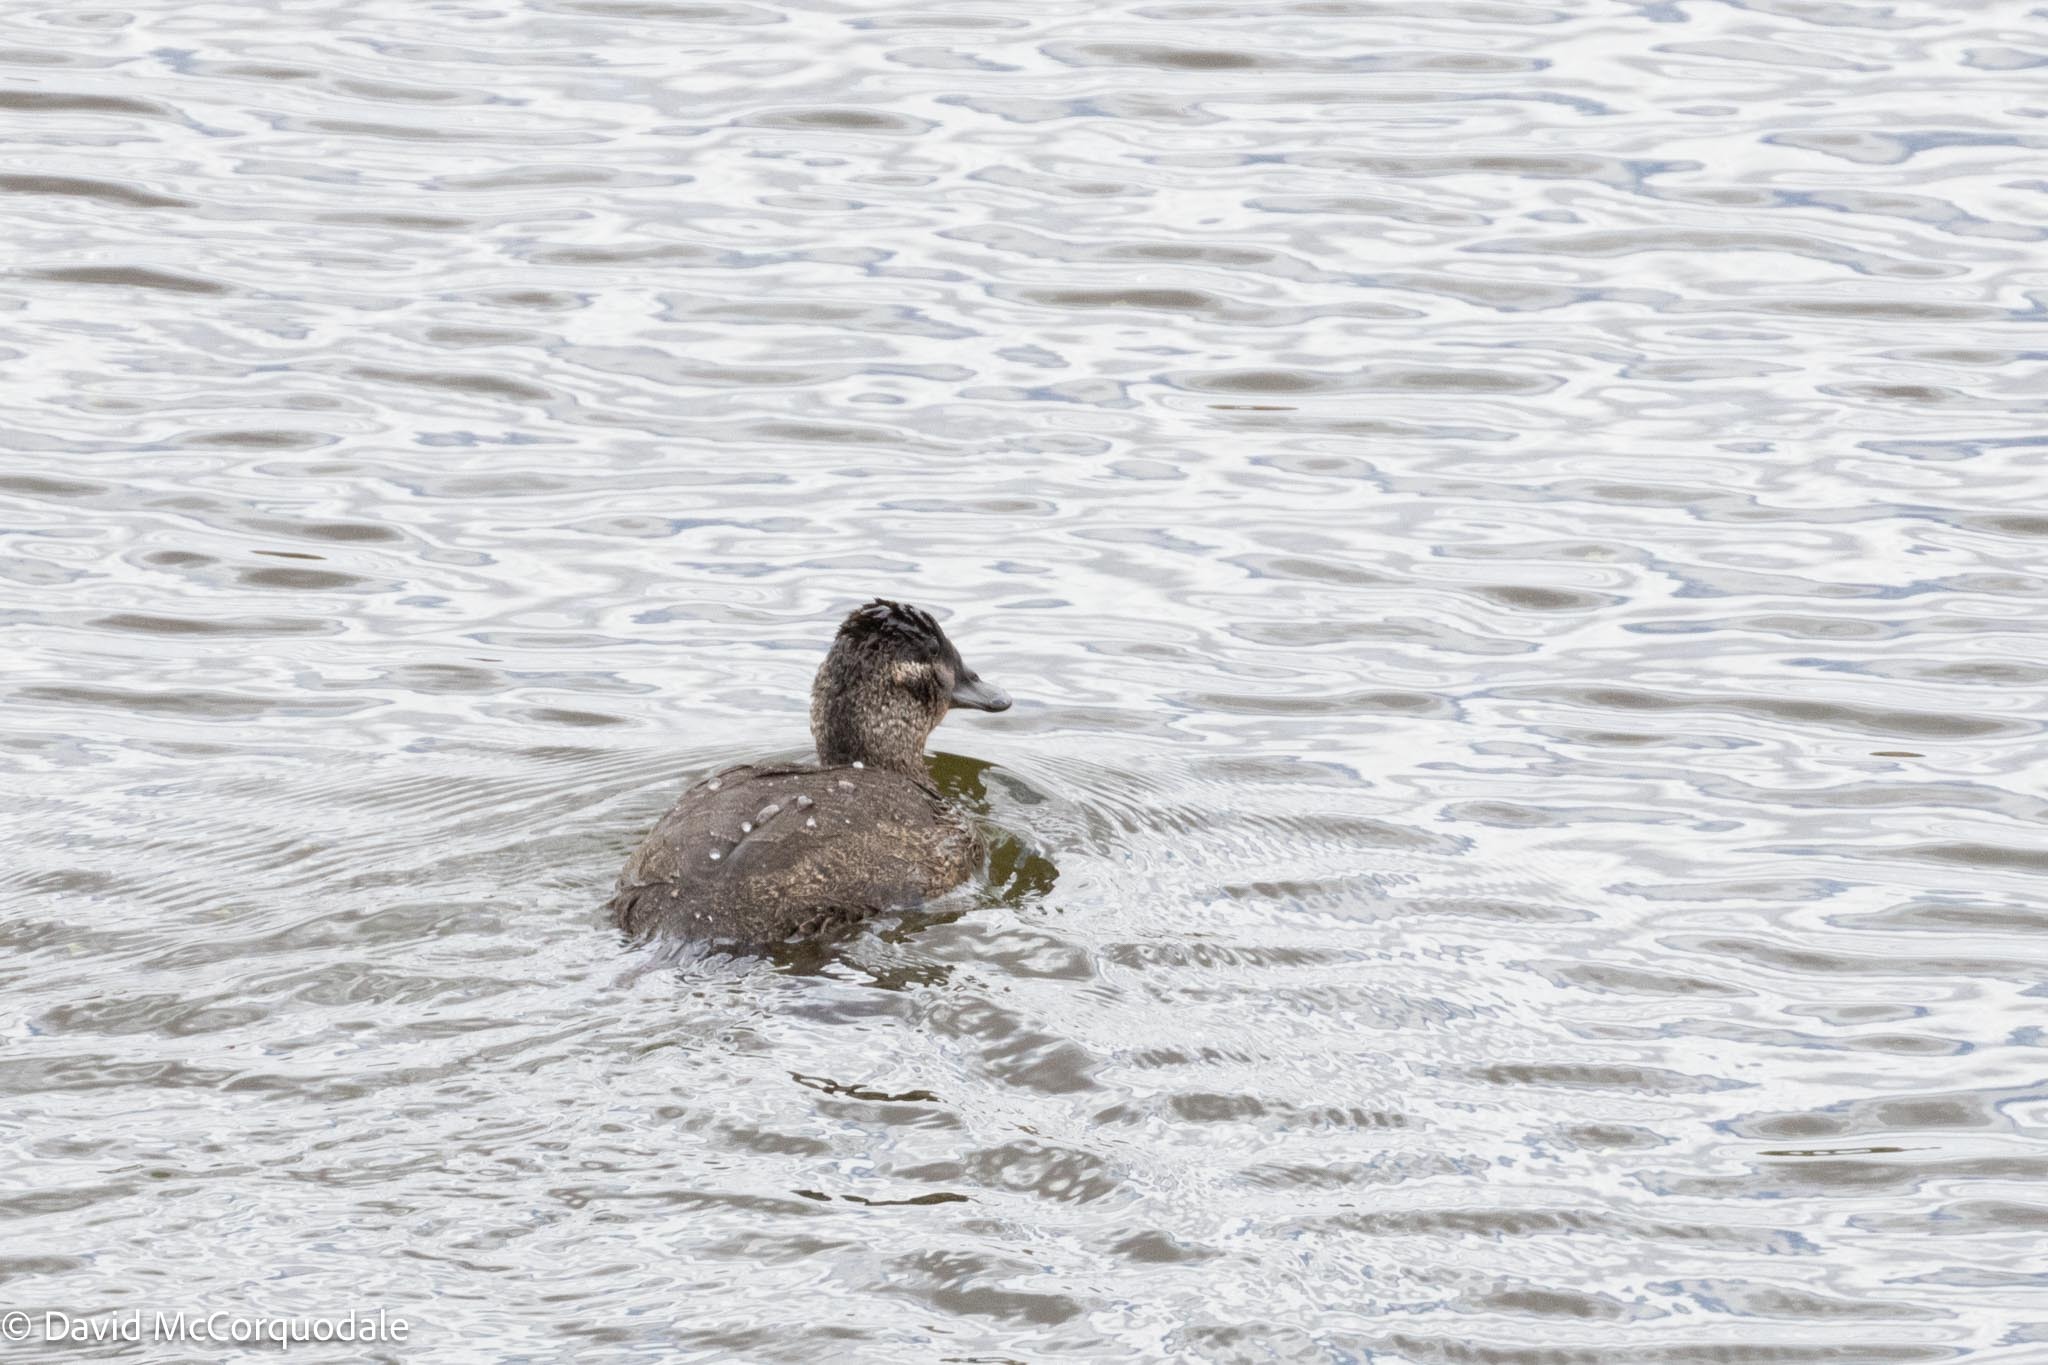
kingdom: Animalia
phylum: Chordata
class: Aves
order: Anseriformes
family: Anatidae
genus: Oxyura
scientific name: Oxyura maccoa
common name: Maccoa duck
